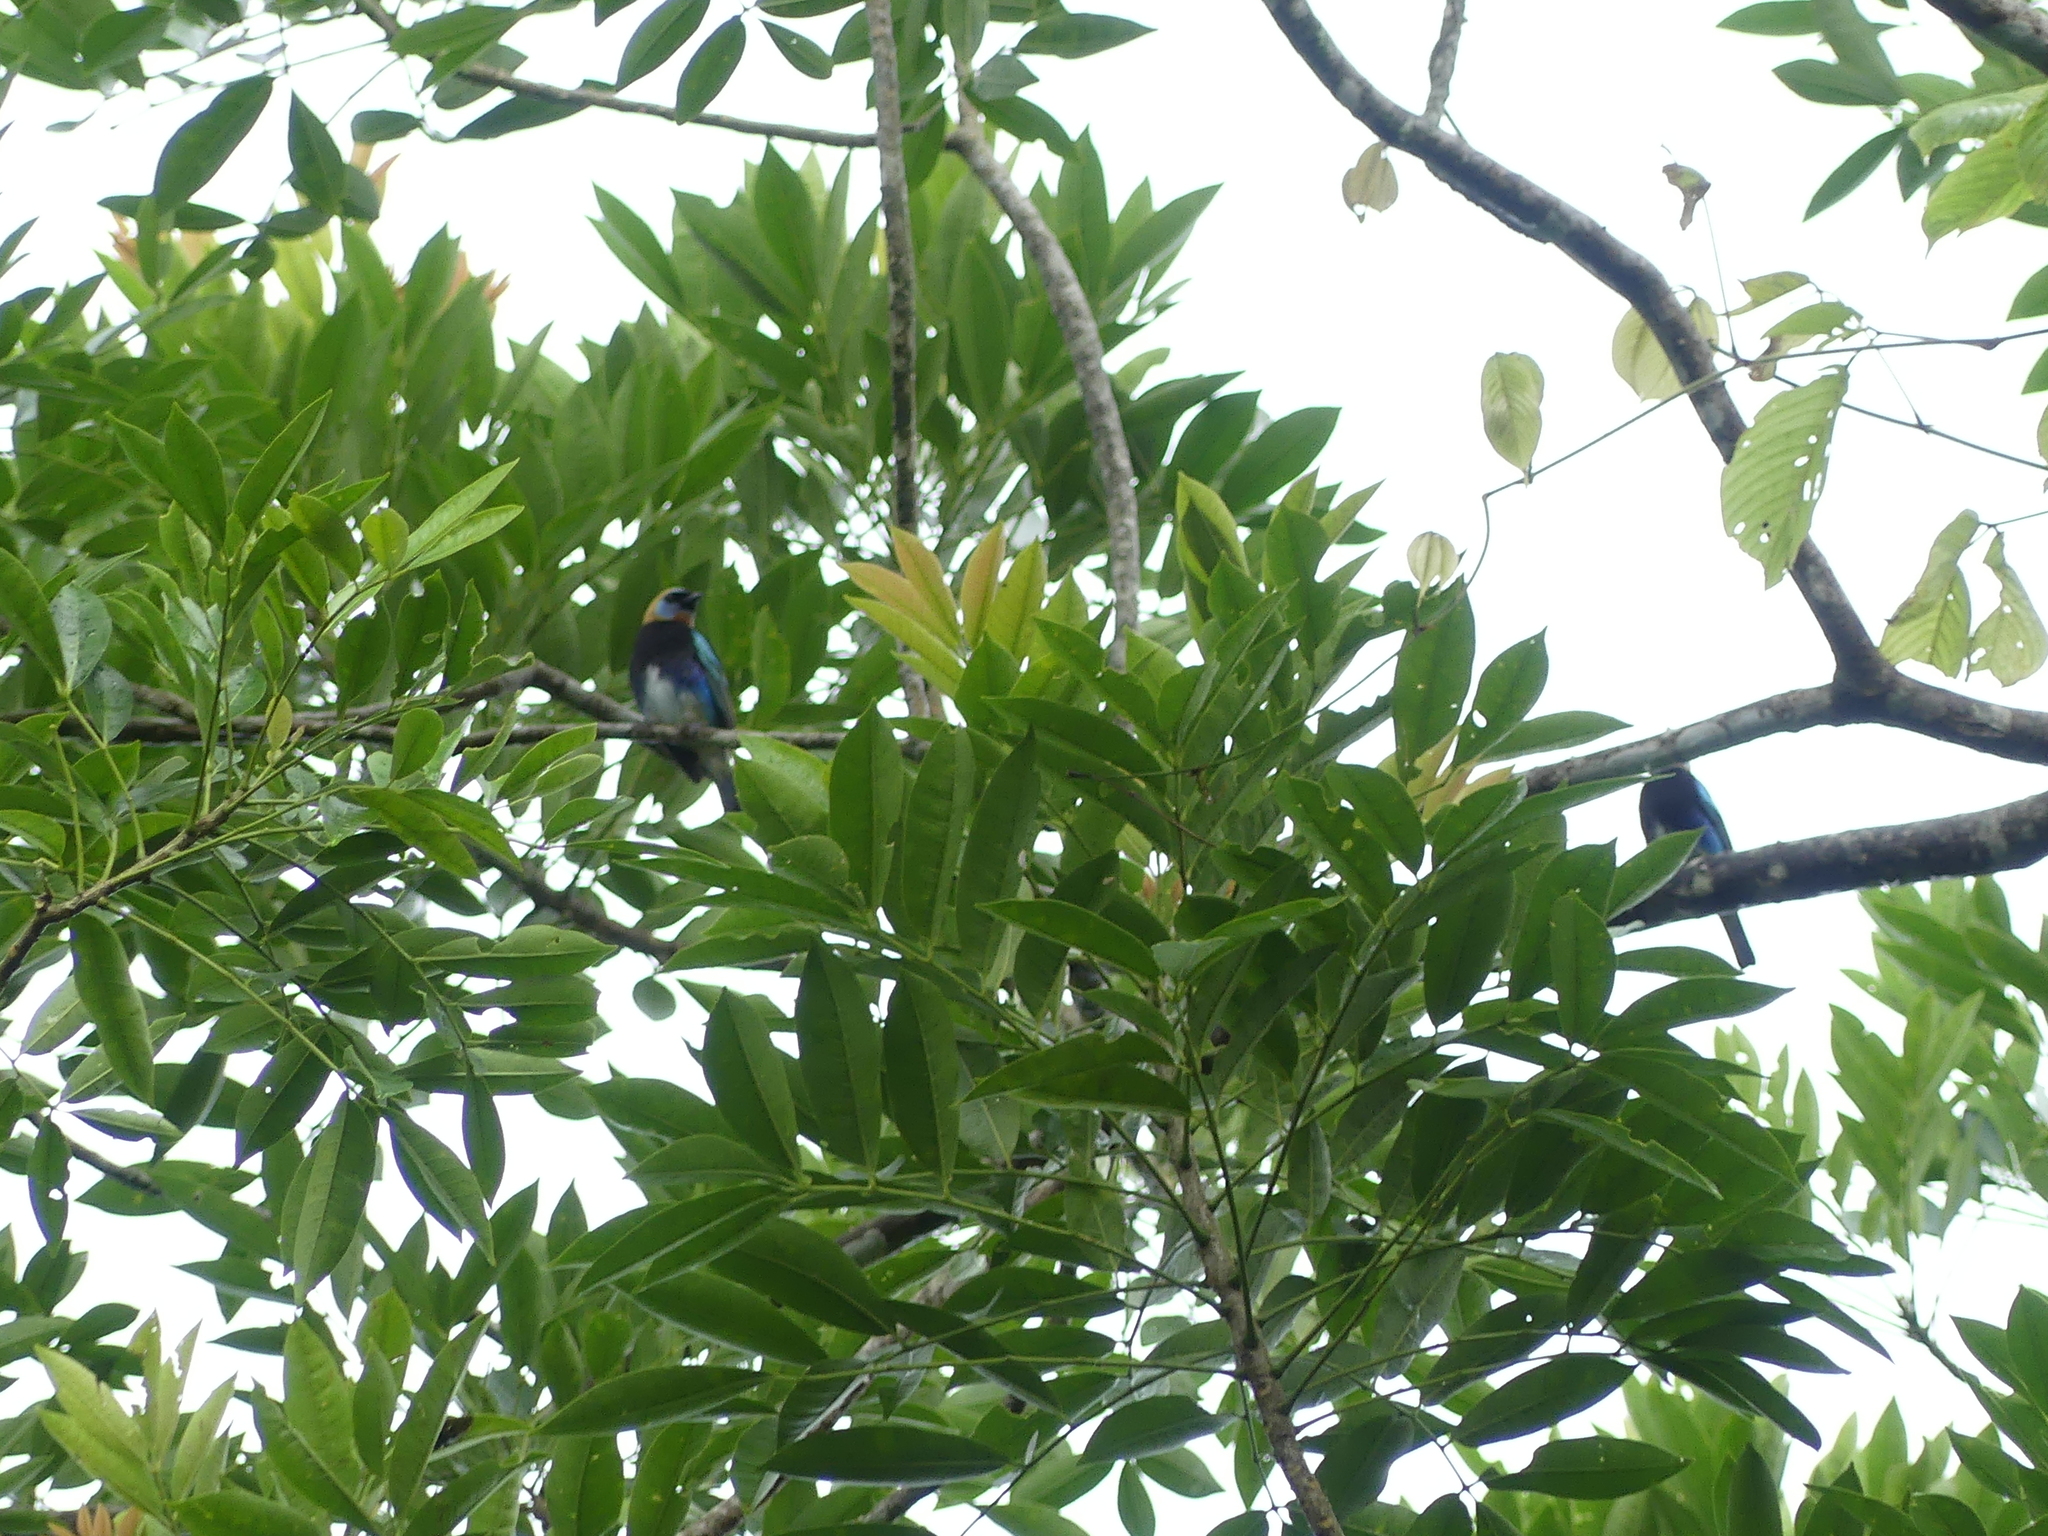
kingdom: Animalia
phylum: Chordata
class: Aves
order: Passeriformes
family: Thraupidae
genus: Stilpnia
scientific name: Stilpnia larvata
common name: Golden-hooded tanager
